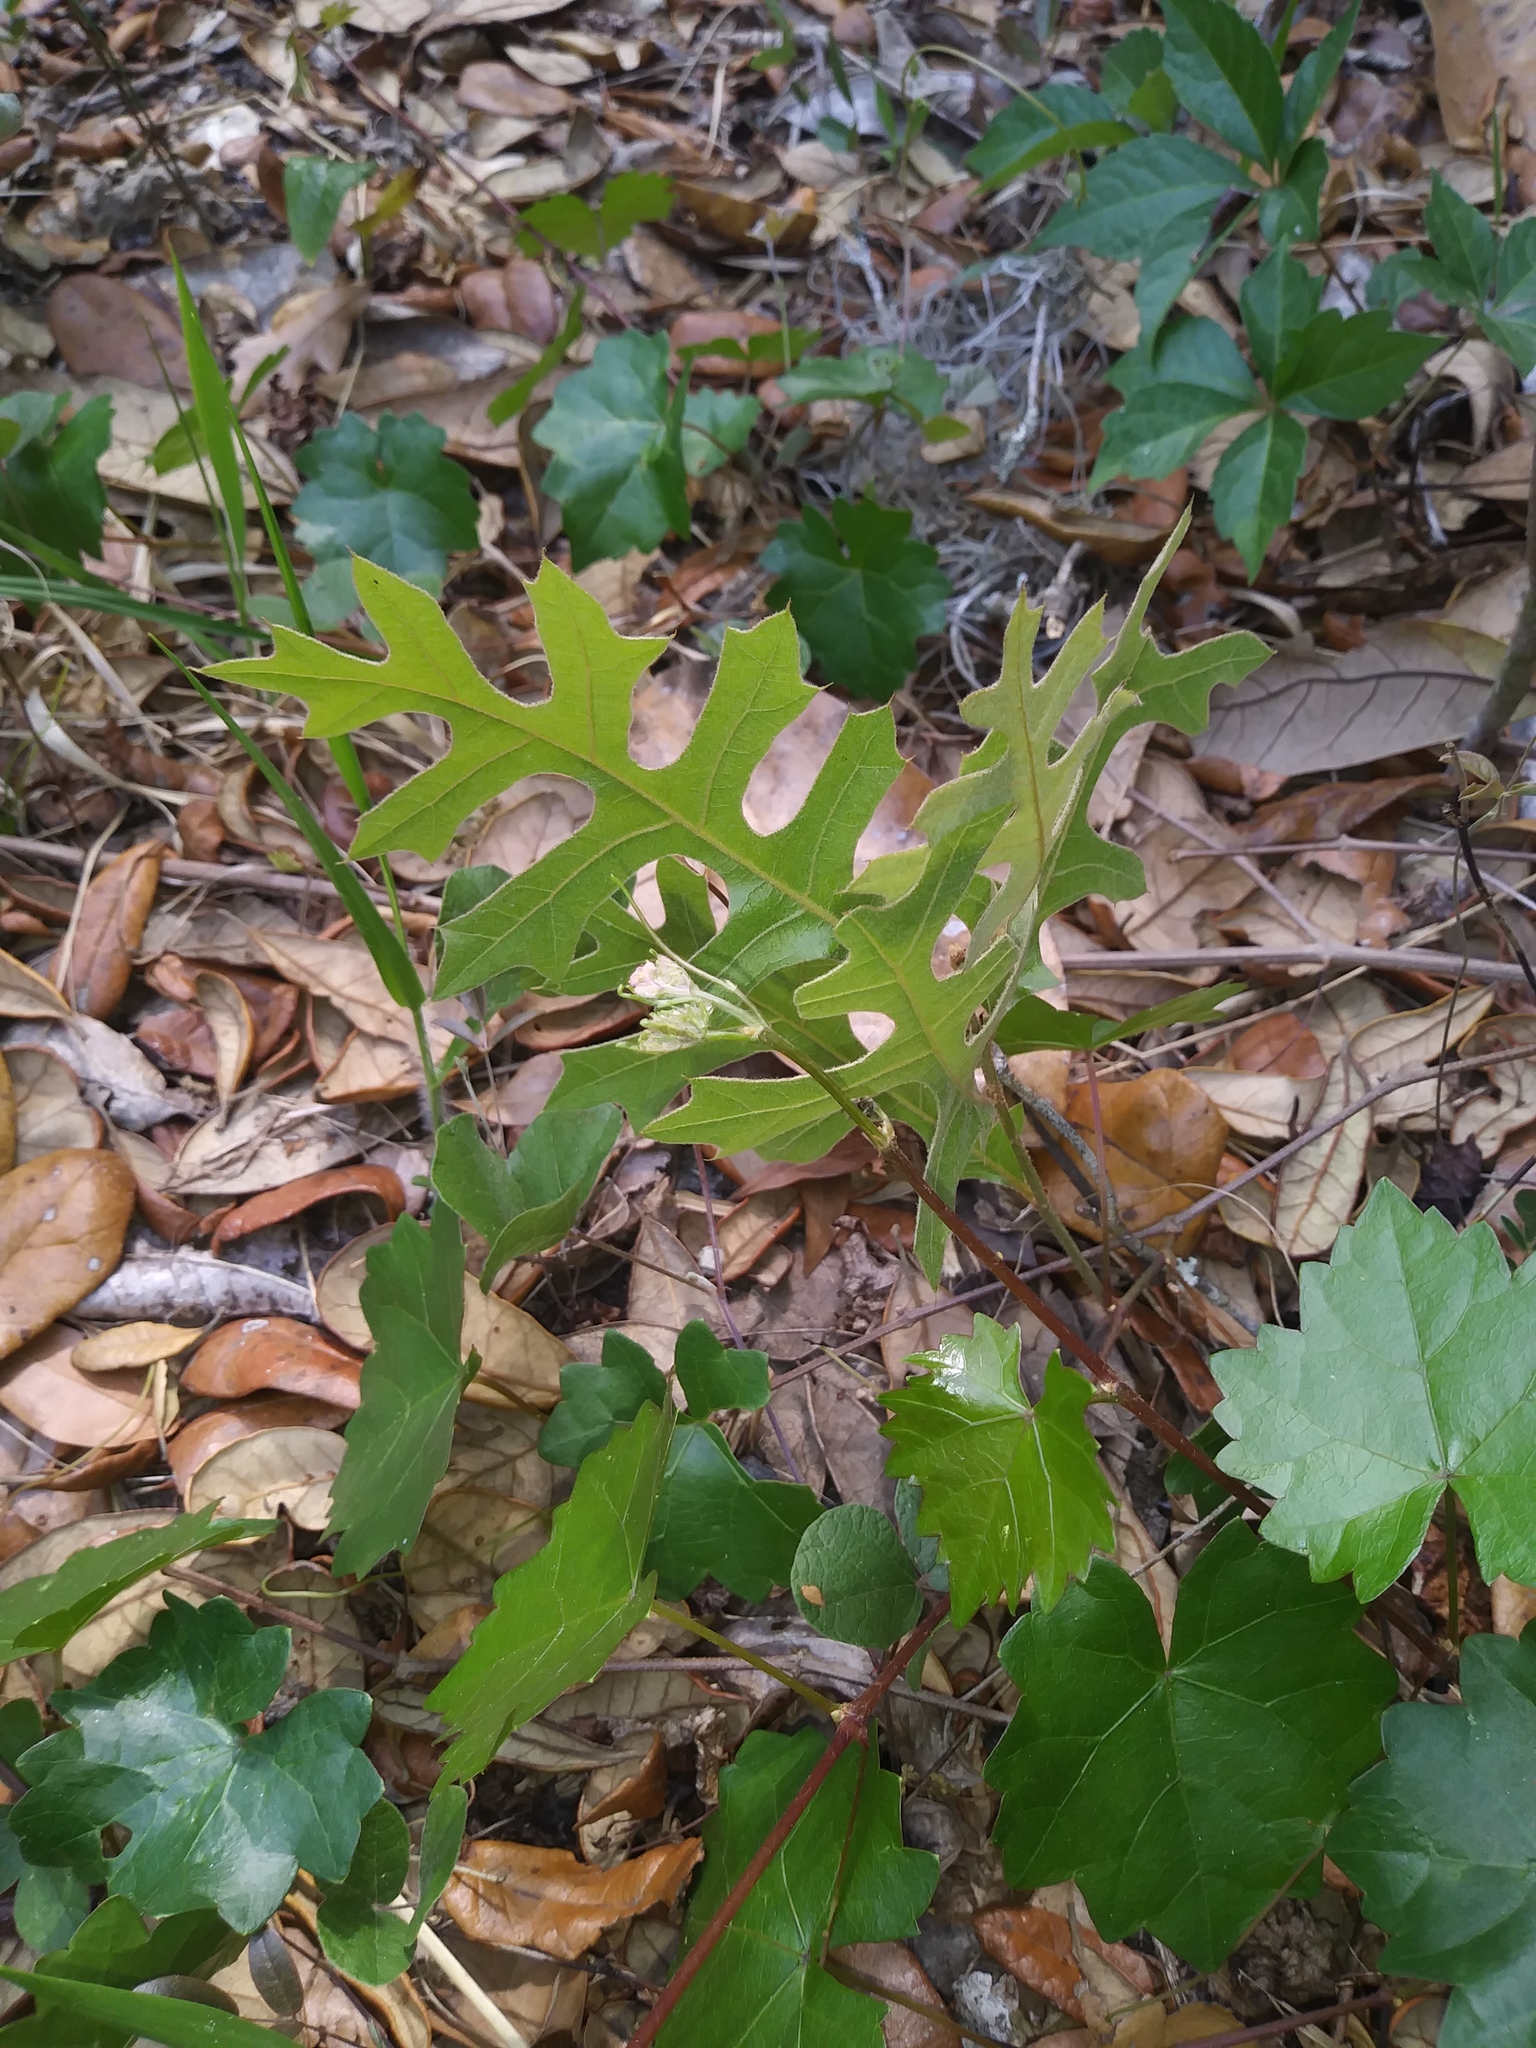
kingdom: Plantae
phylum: Tracheophyta
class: Magnoliopsida
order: Fagales
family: Fagaceae
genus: Quercus
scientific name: Quercus laevis
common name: Turkey oak
